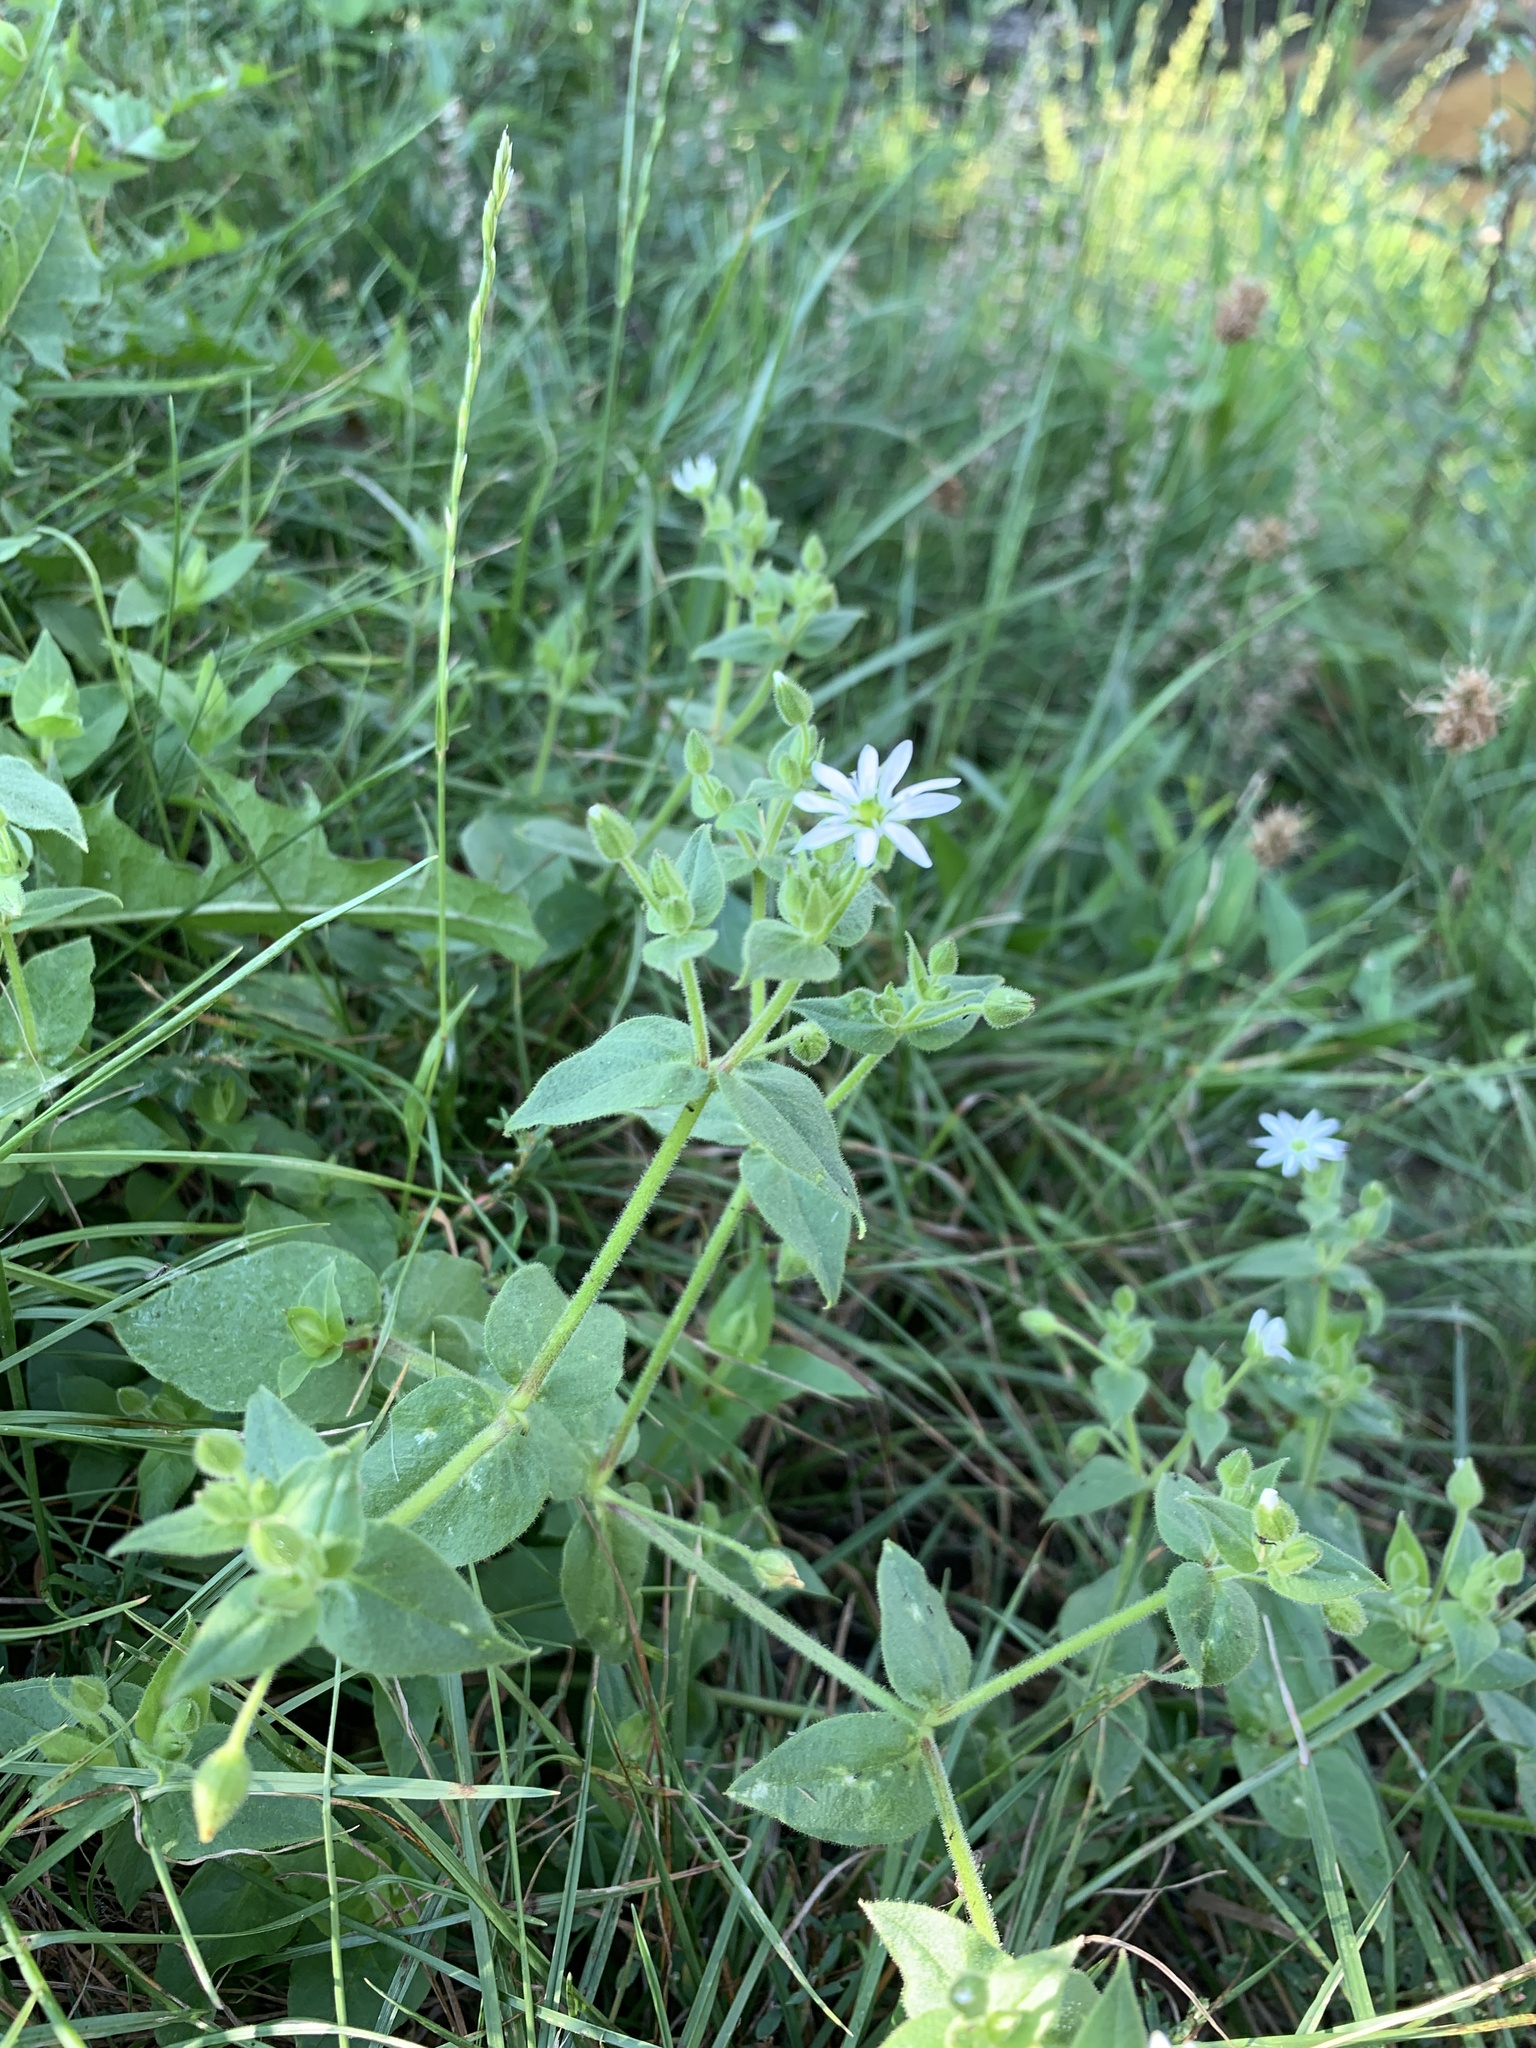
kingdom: Plantae
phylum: Tracheophyta
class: Magnoliopsida
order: Caryophyllales
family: Caryophyllaceae
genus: Stellaria
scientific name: Stellaria aquatica
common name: Water chickweed
